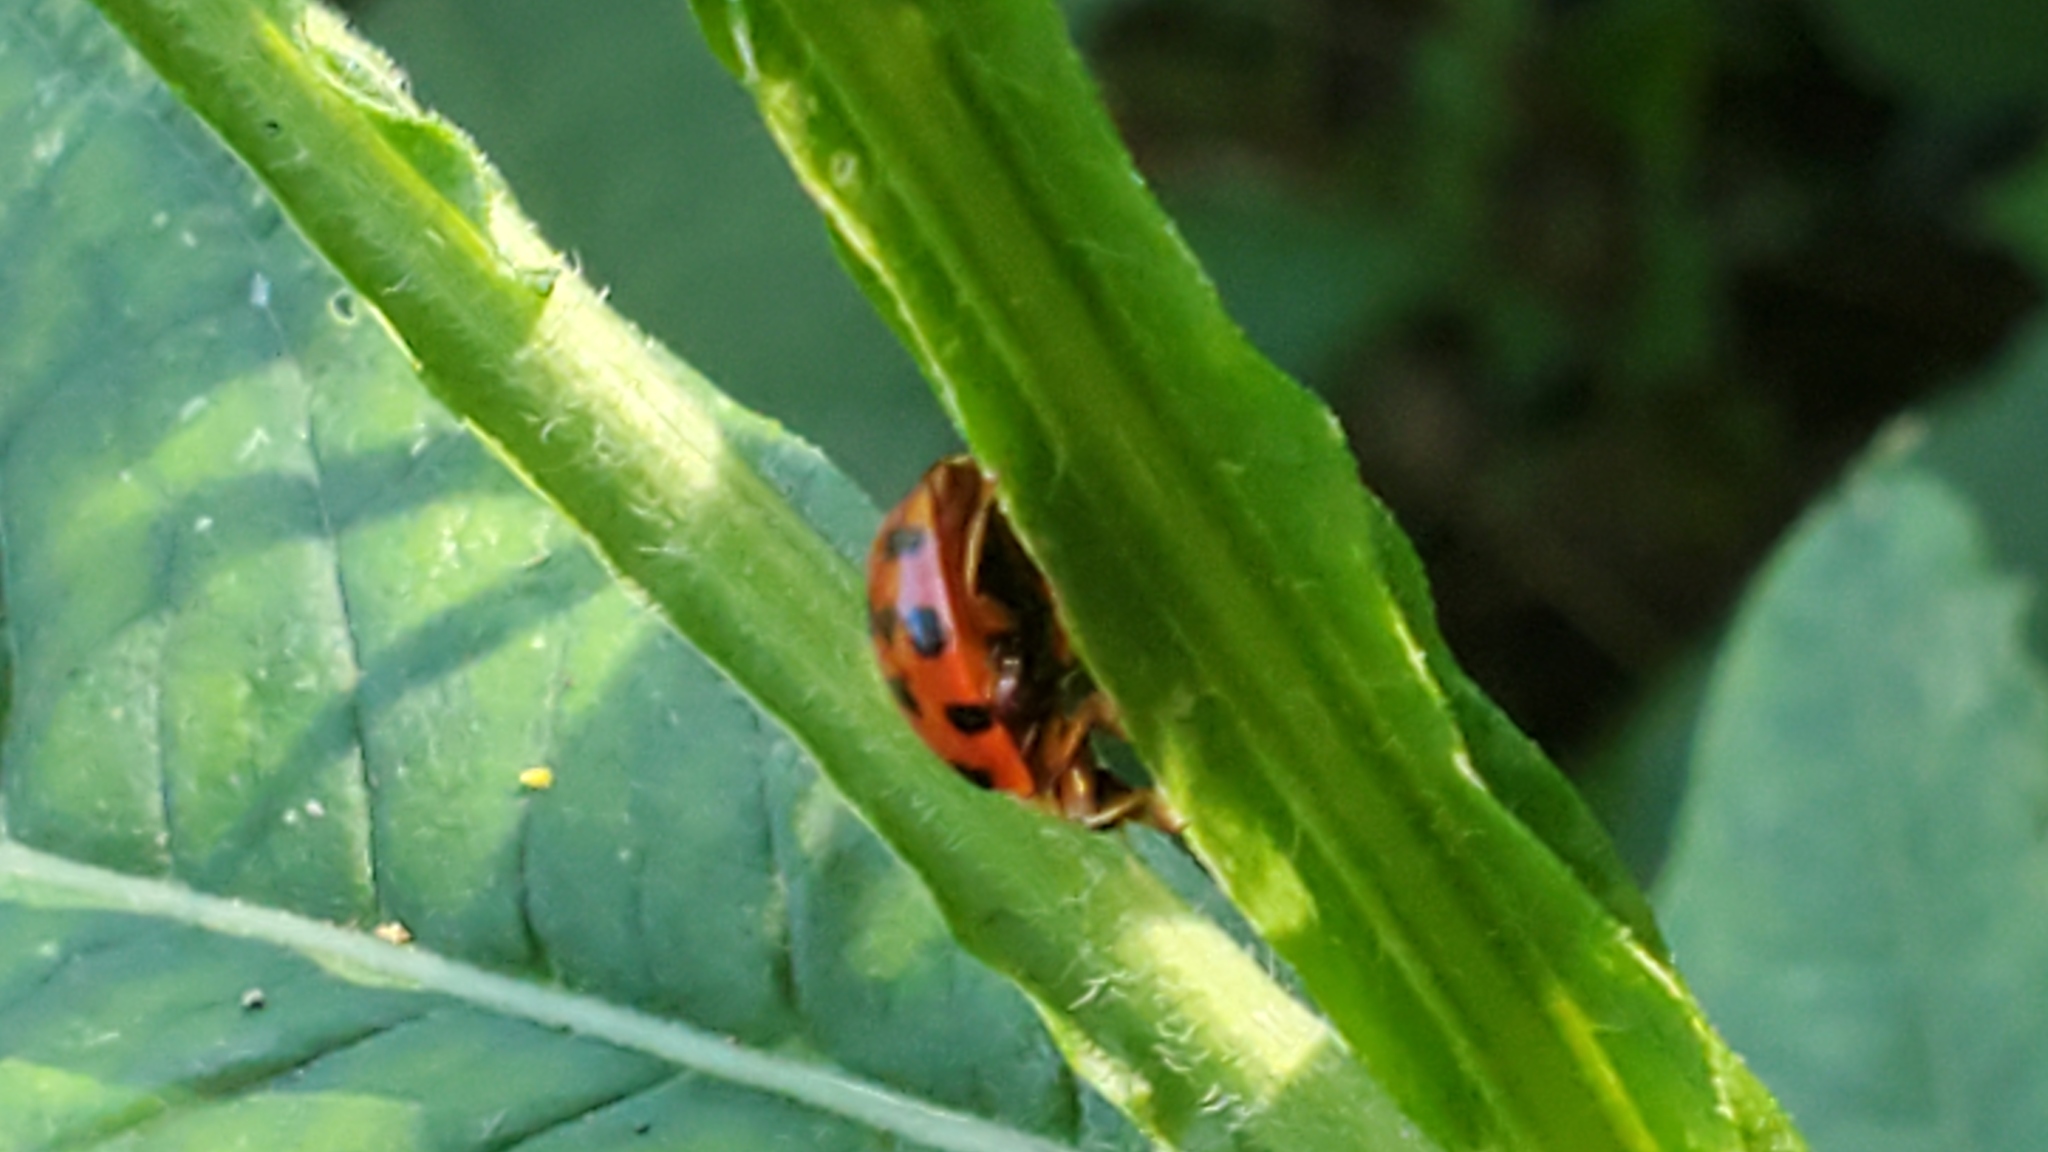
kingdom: Animalia
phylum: Arthropoda
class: Insecta
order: Coleoptera
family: Coccinellidae
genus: Harmonia
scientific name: Harmonia axyridis
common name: Harlequin ladybird
